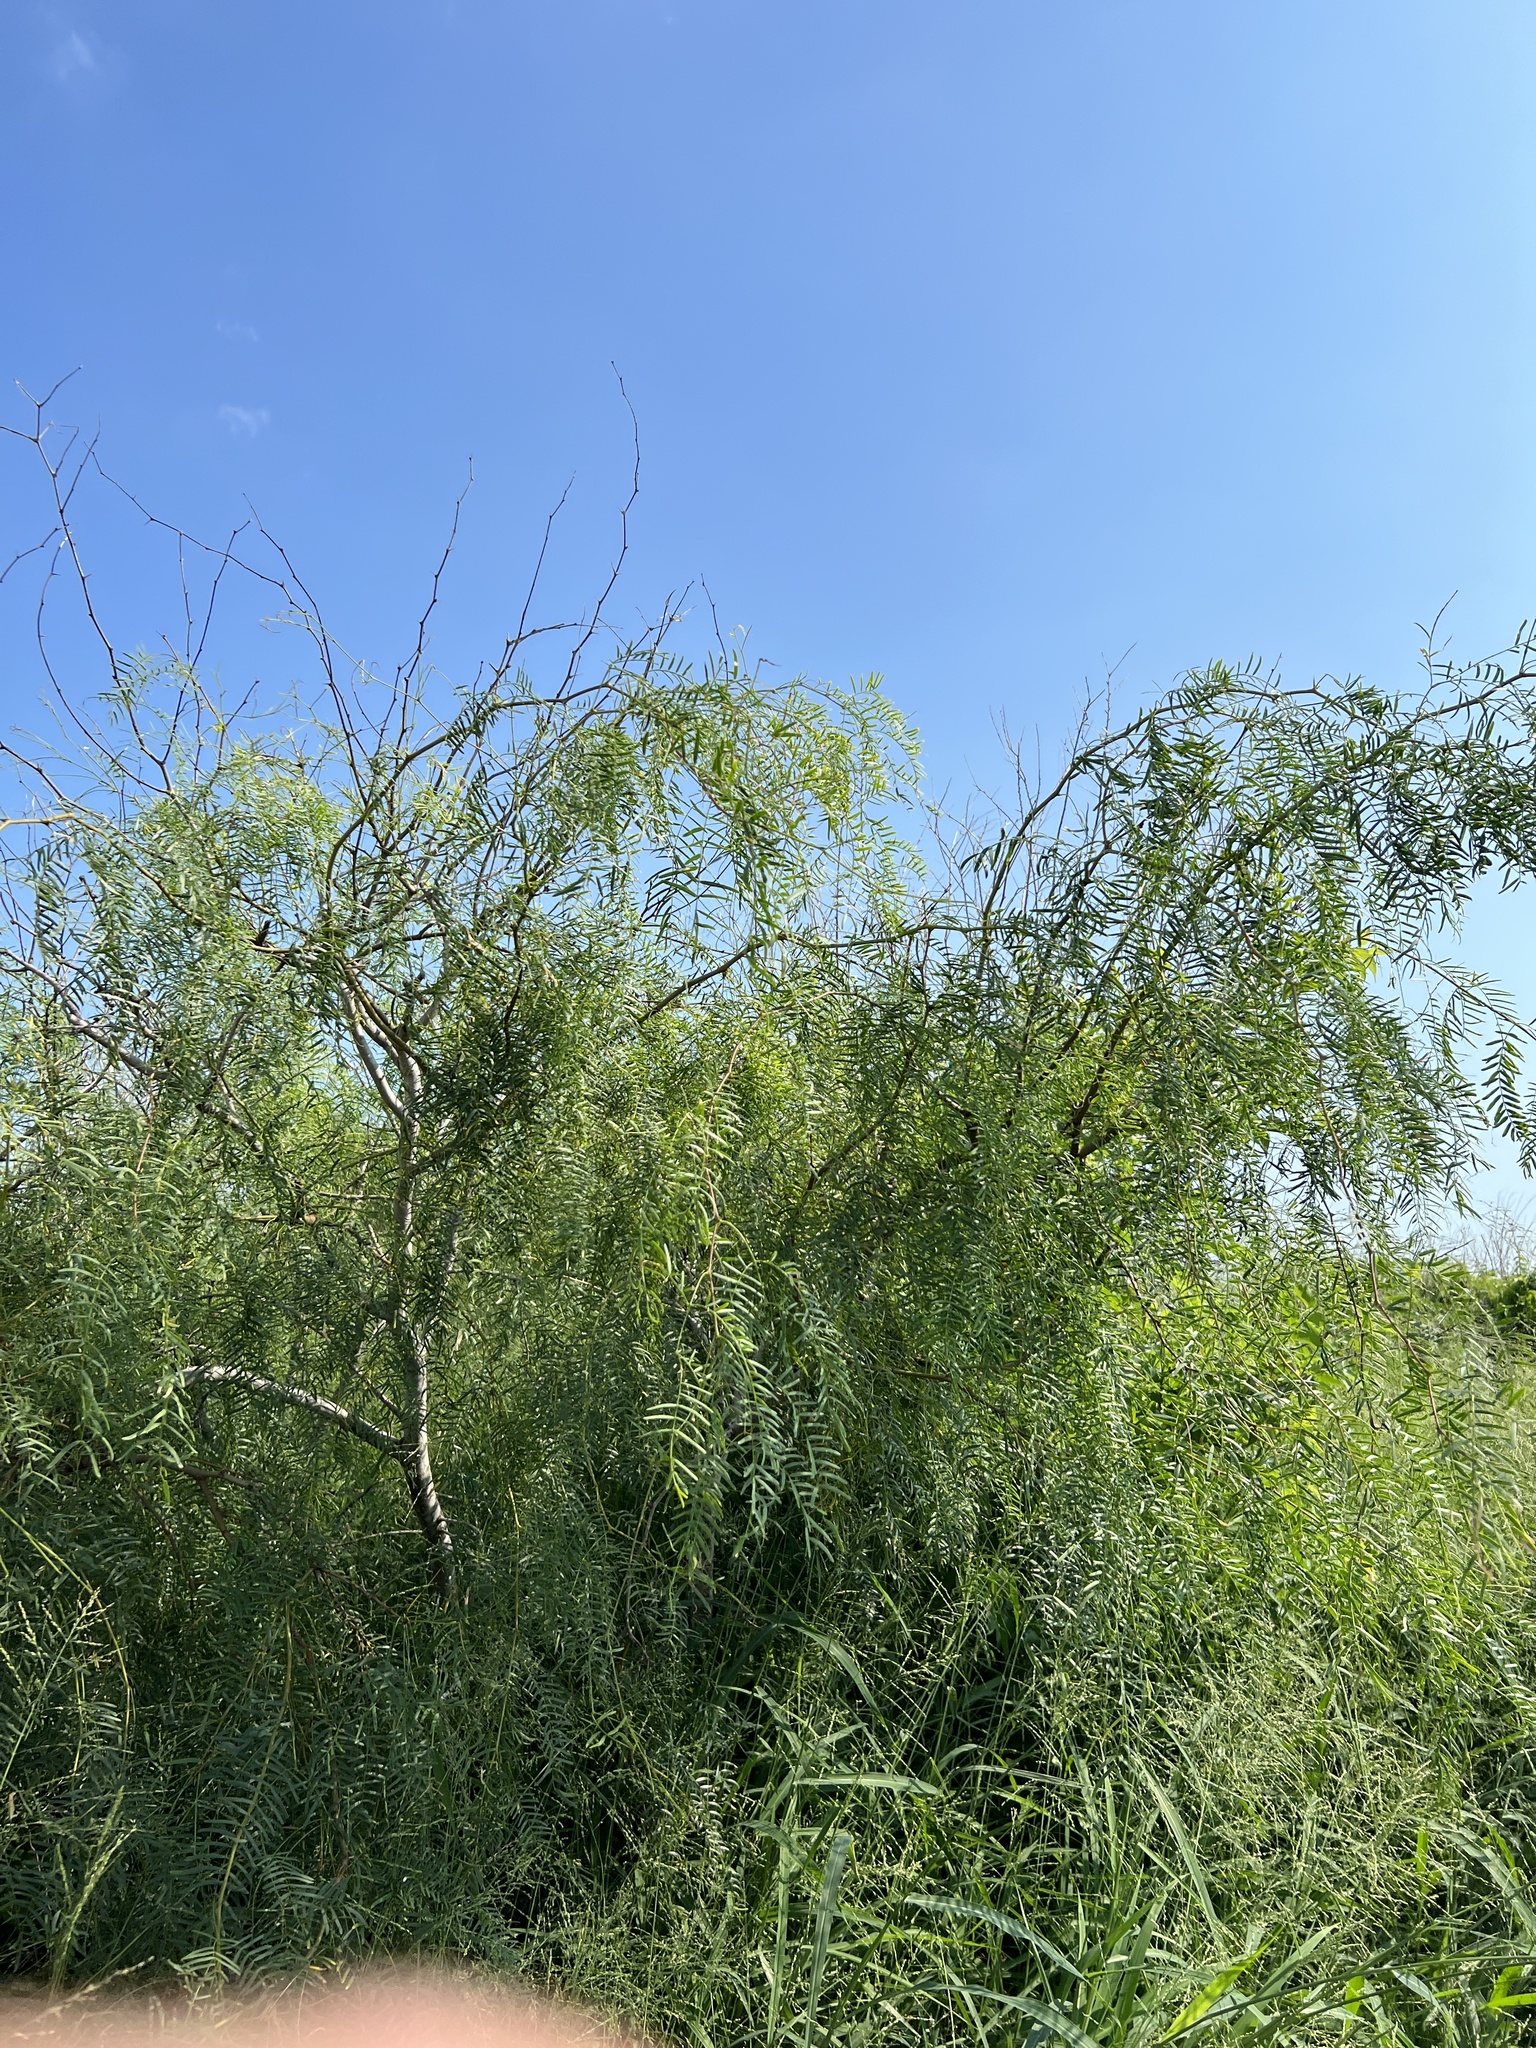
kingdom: Plantae
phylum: Tracheophyta
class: Magnoliopsida
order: Fabales
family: Fabaceae
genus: Prosopis
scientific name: Prosopis glandulosa
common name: Honey mesquite
